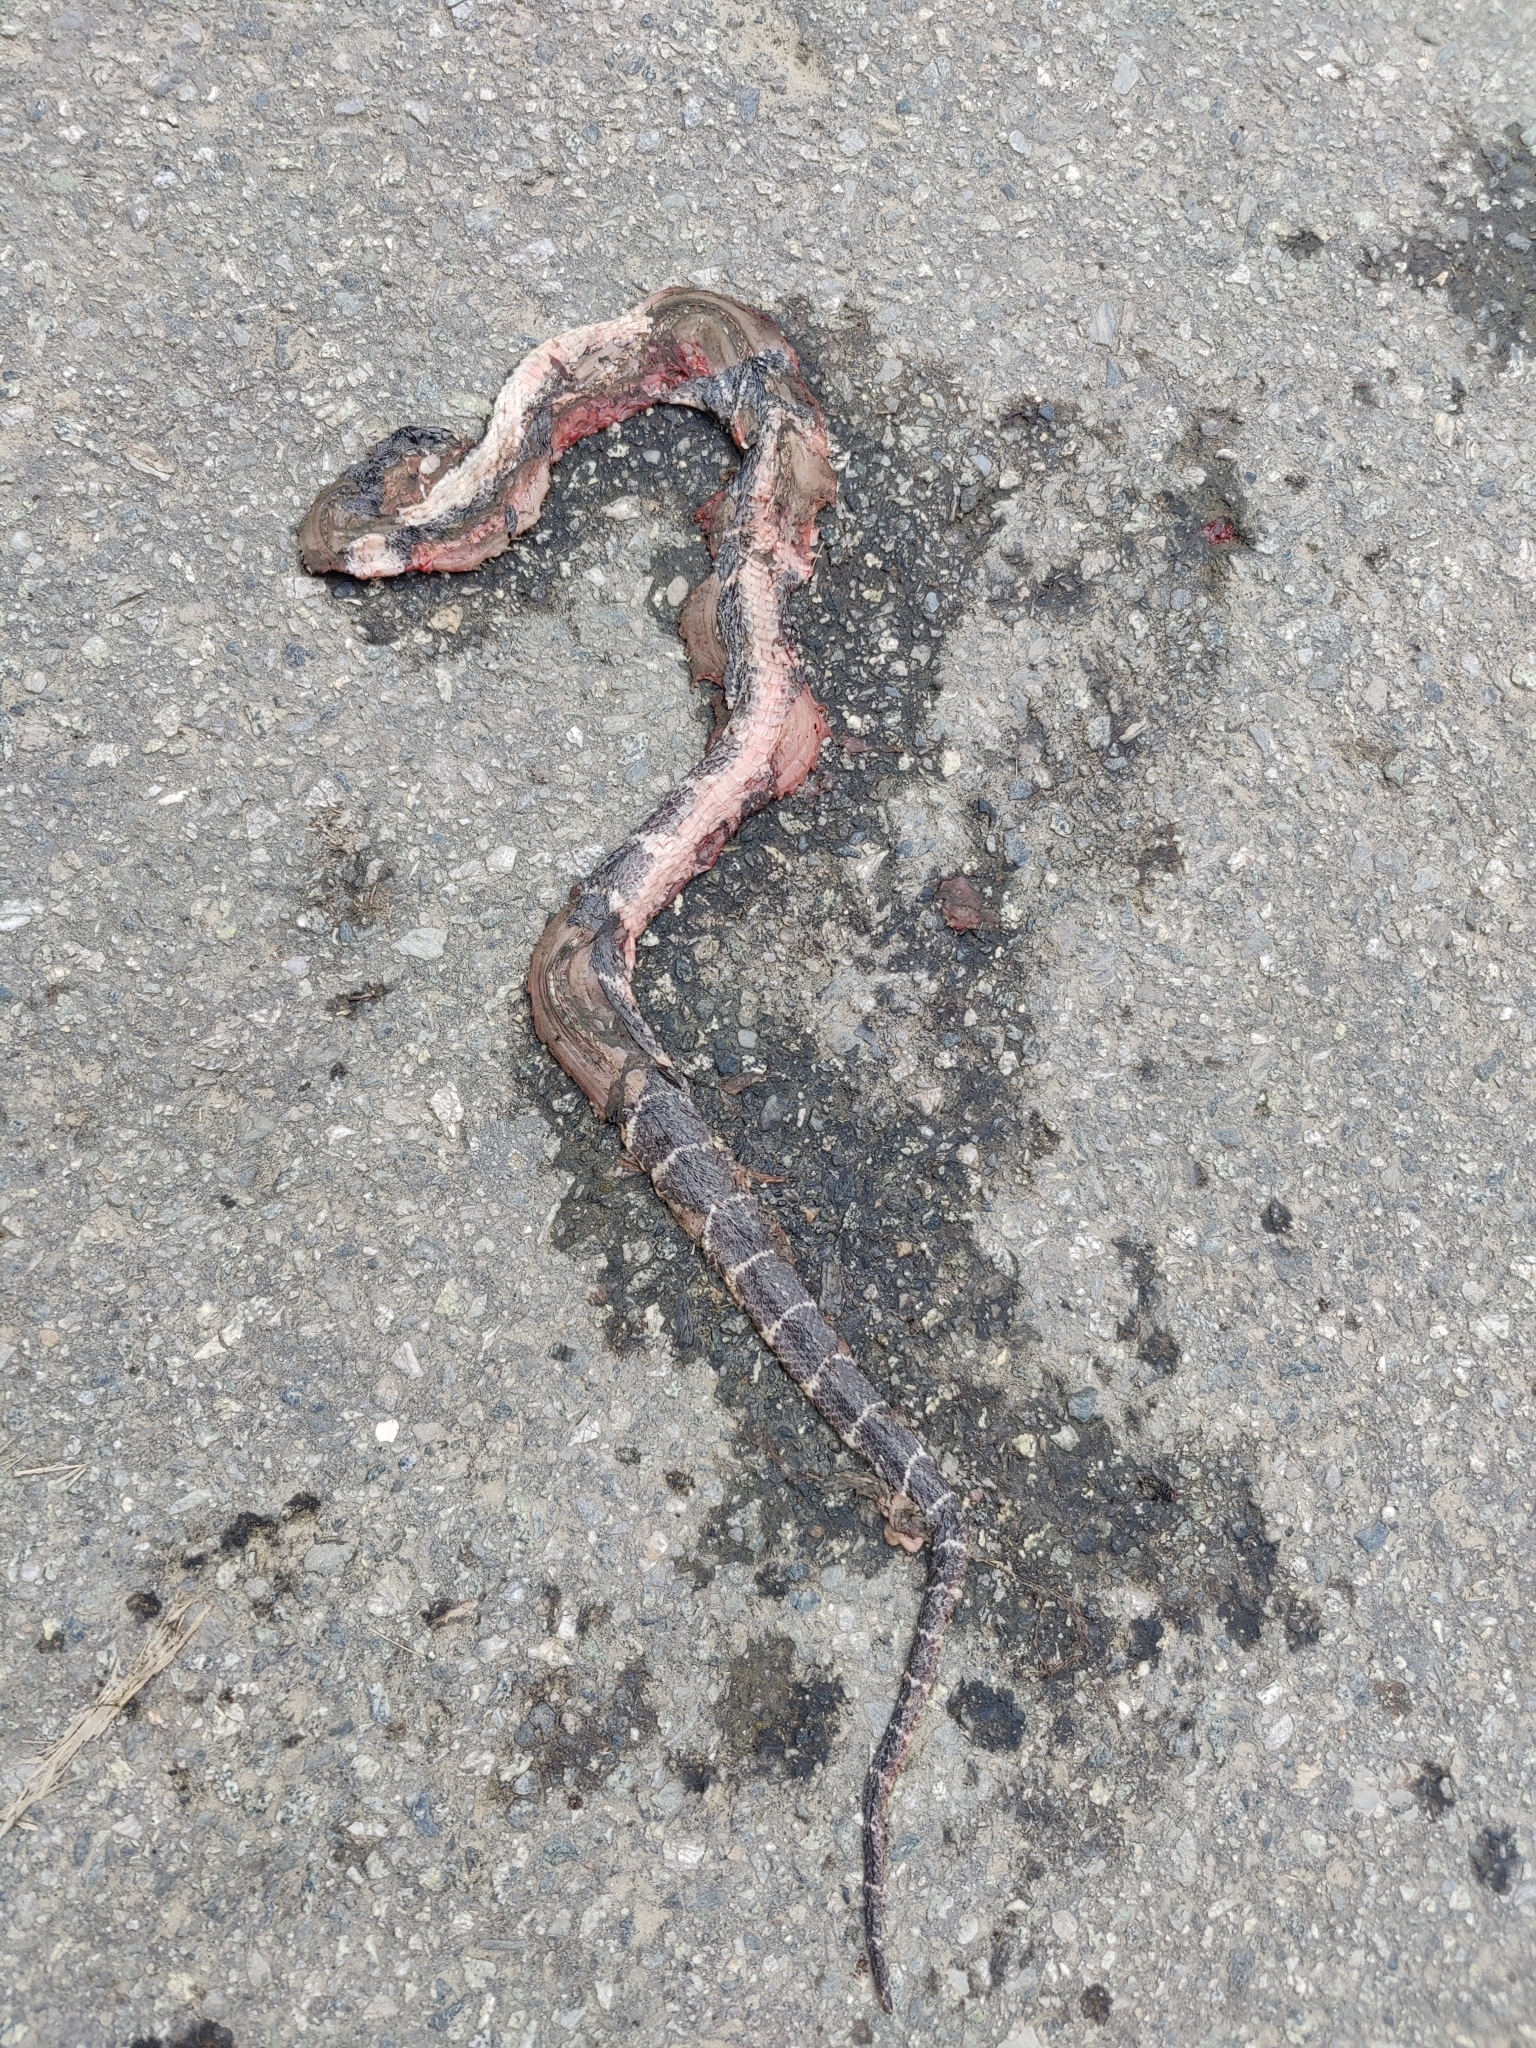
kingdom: Animalia
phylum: Chordata
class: Squamata
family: Colubridae
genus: Lycodon
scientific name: Lycodon septentrionalis
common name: Northern large-toothed snake
